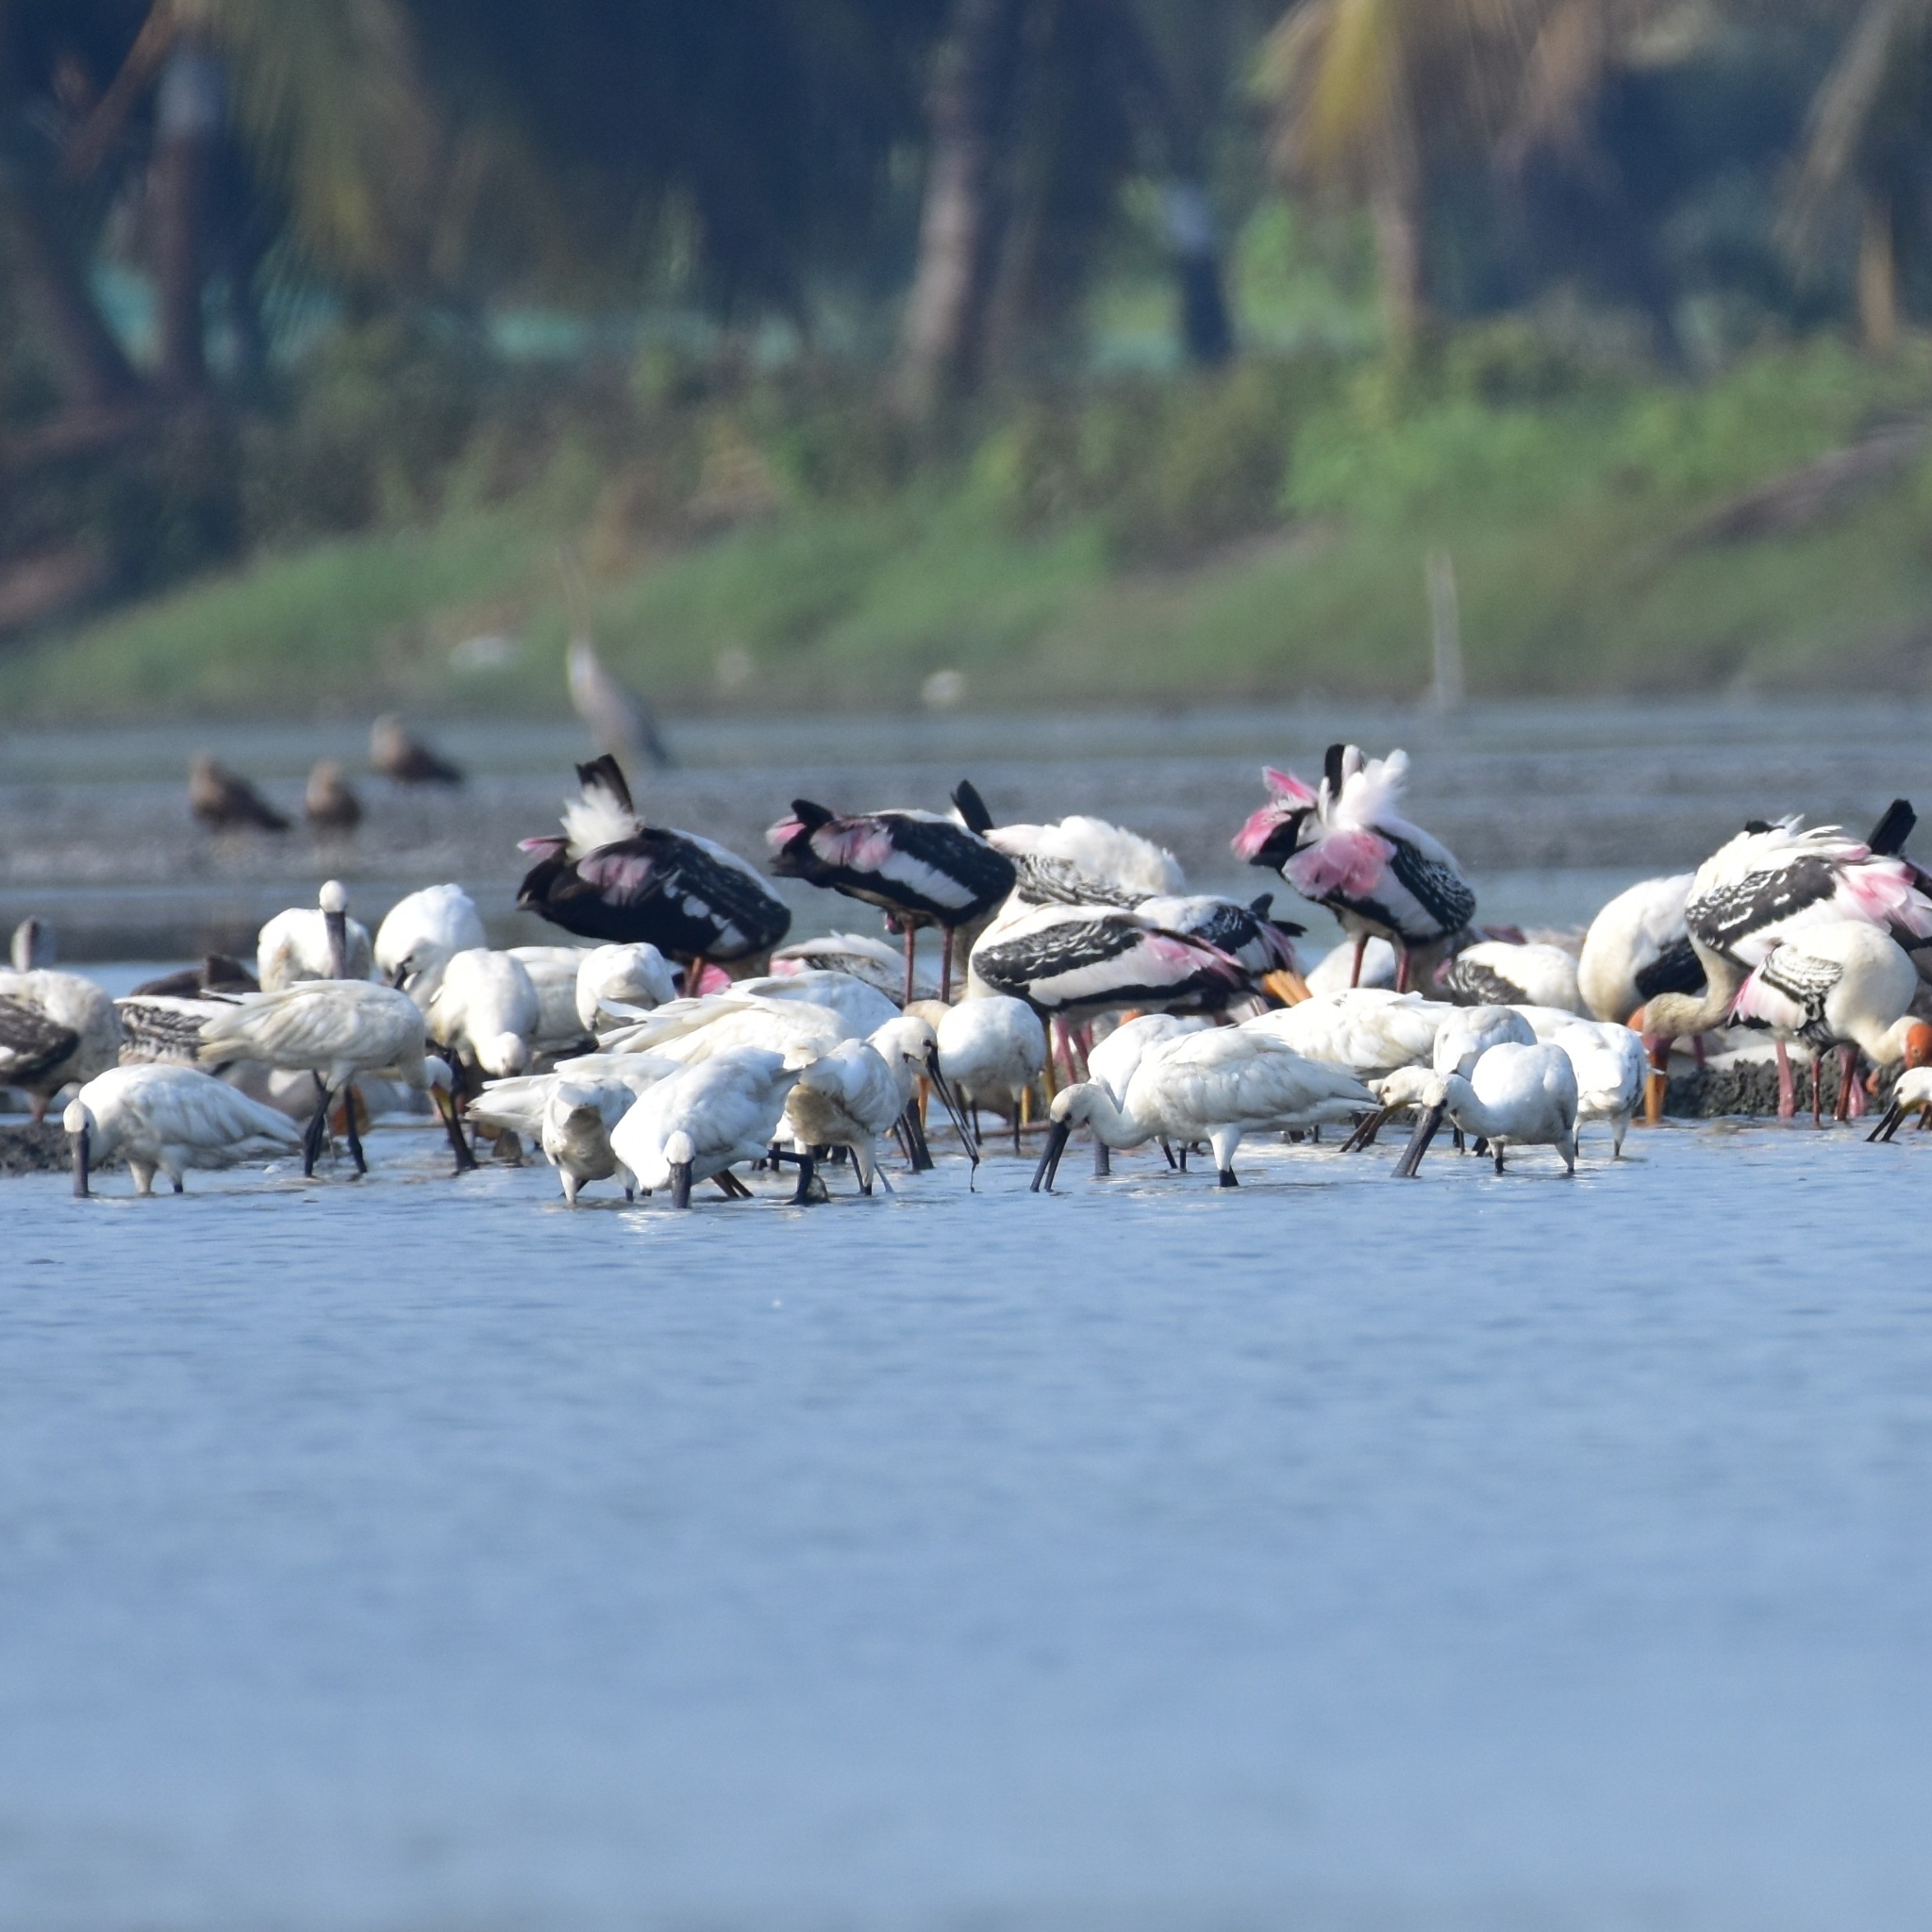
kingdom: Animalia
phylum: Chordata
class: Aves
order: Pelecaniformes
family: Threskiornithidae
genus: Platalea
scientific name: Platalea leucorodia
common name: Eurasian spoonbill
